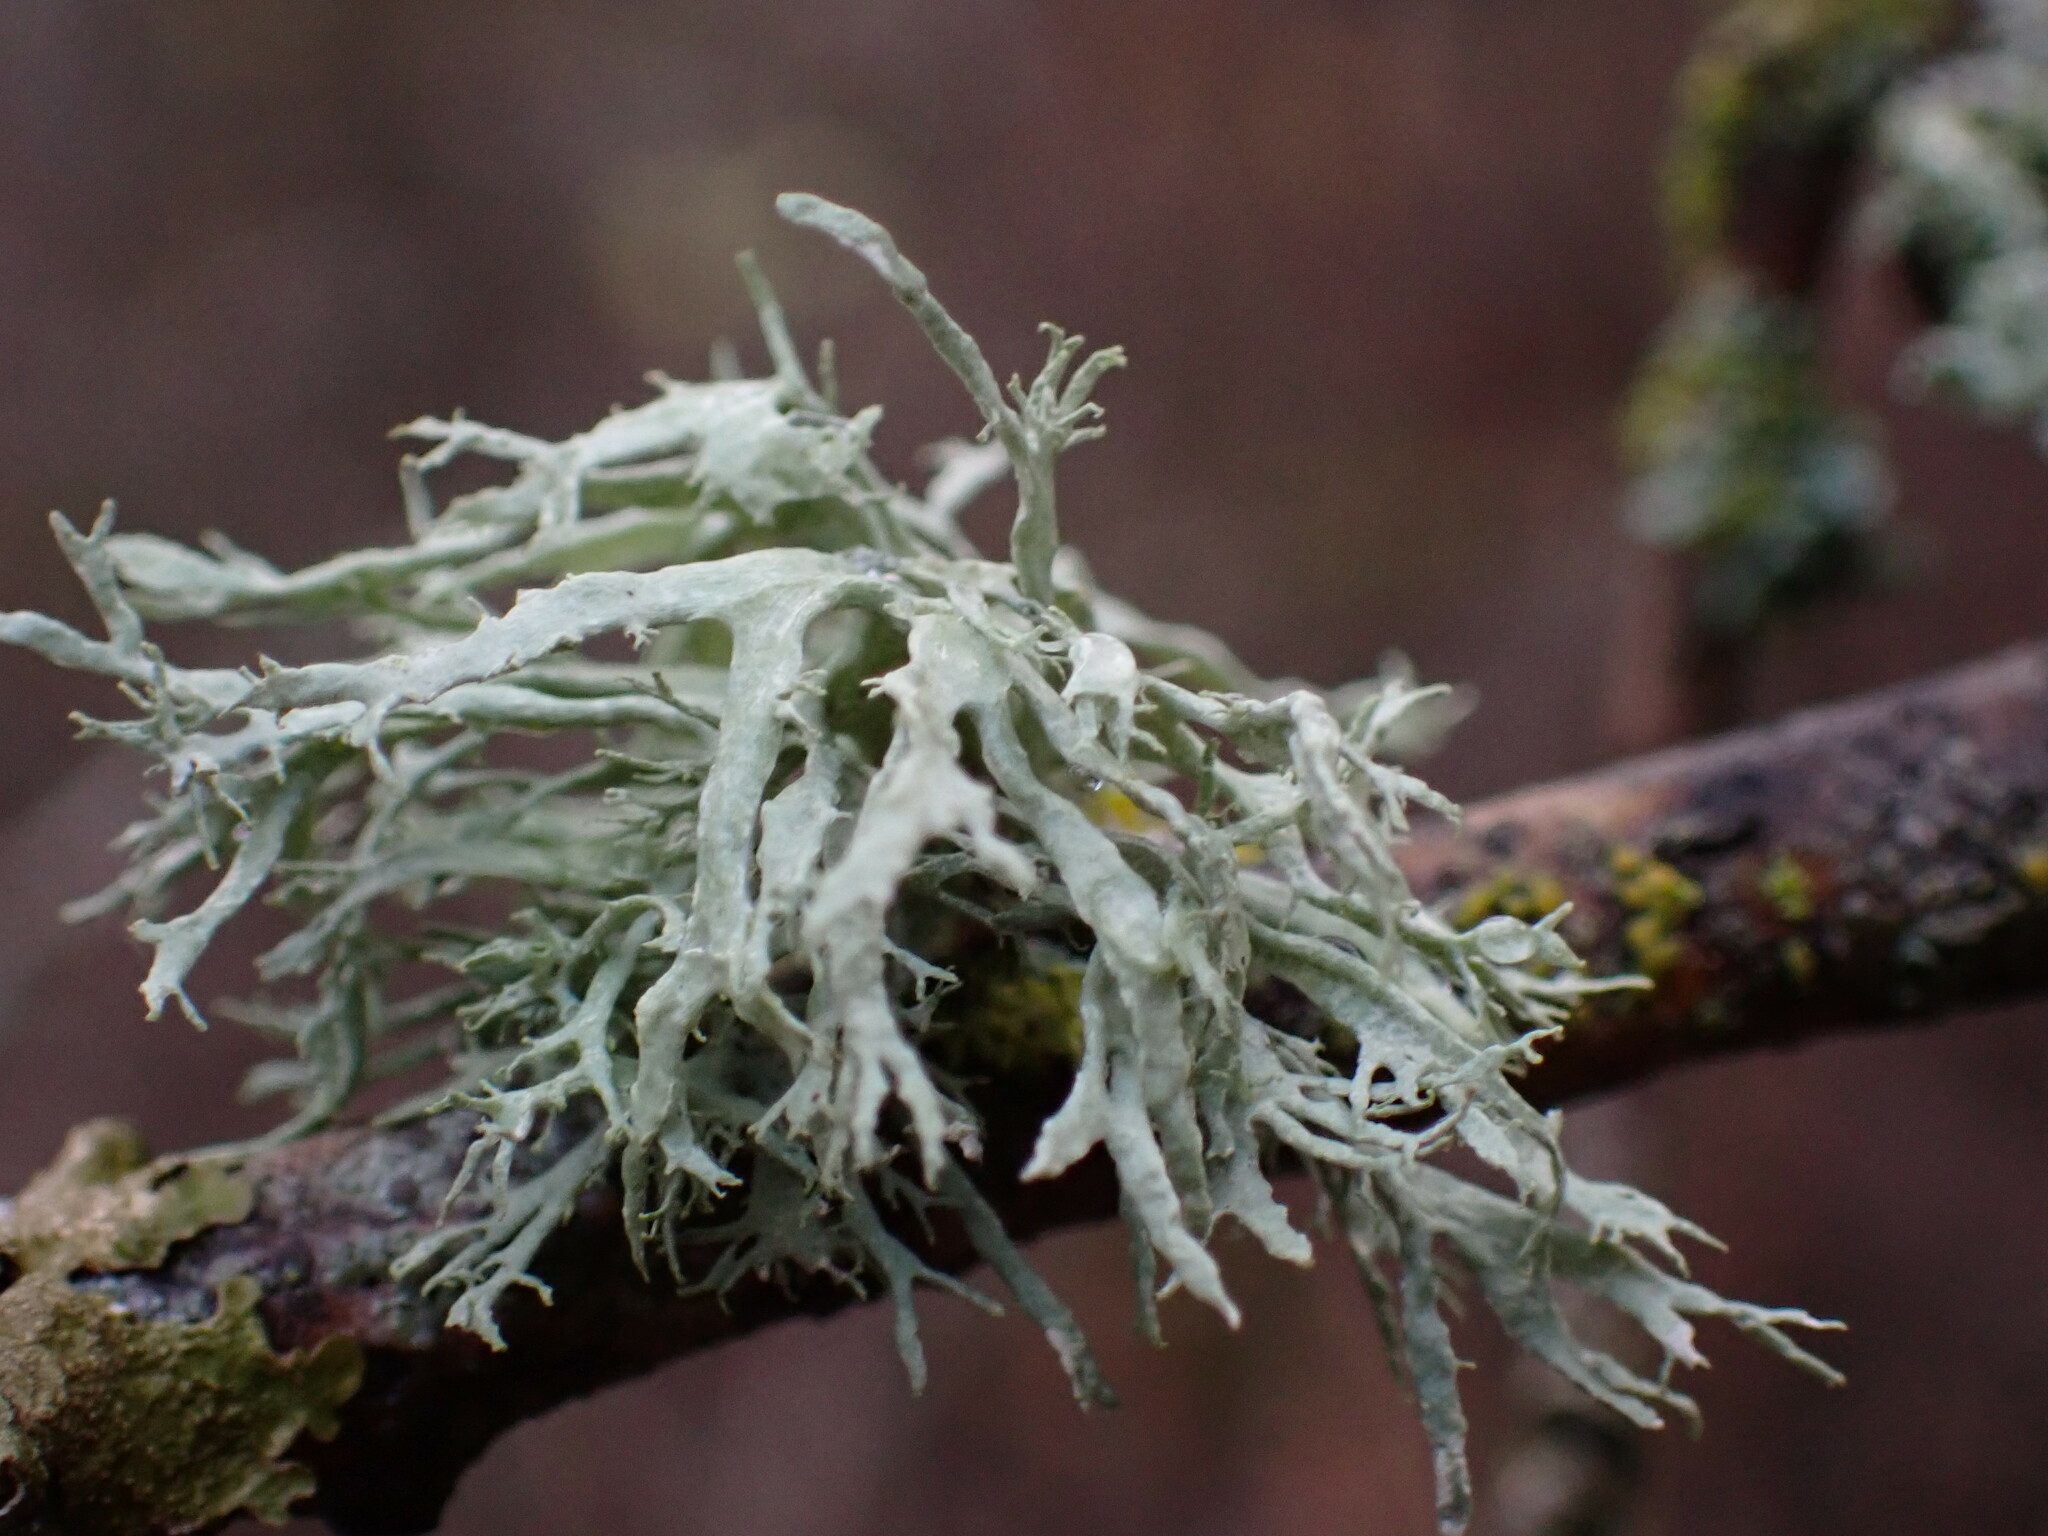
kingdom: Fungi
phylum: Ascomycota
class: Lecanoromycetes
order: Lecanorales
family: Parmeliaceae
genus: Evernia
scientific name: Evernia prunastri
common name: Oak moss
